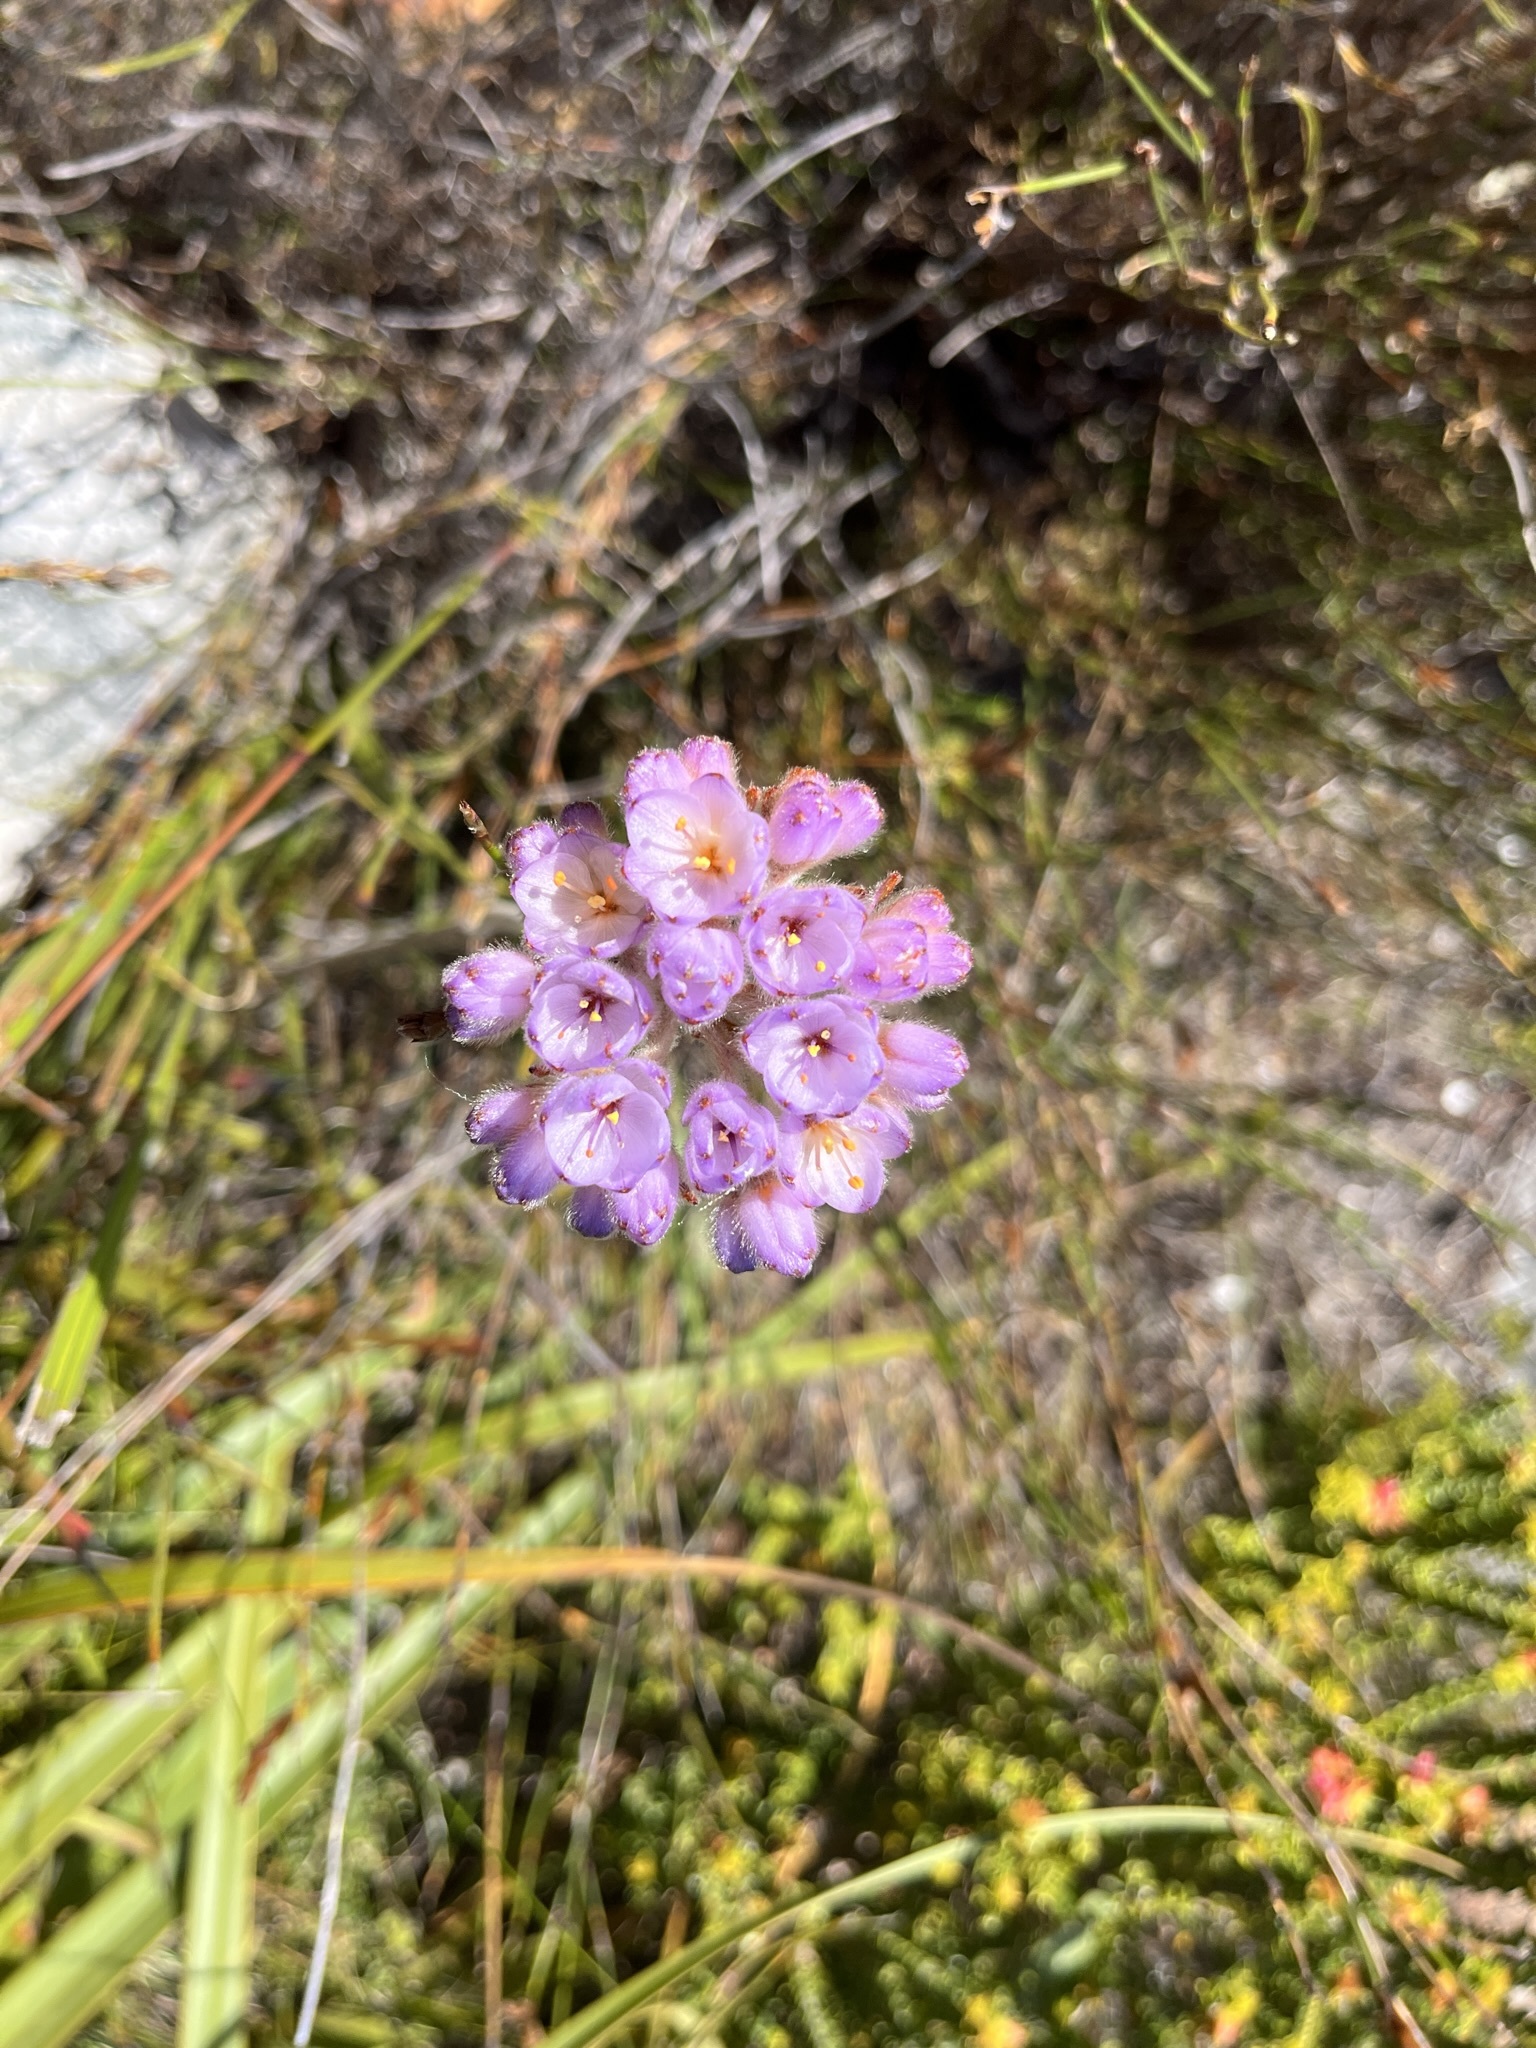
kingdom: Plantae
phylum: Tracheophyta
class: Liliopsida
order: Commelinales
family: Haemodoraceae
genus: Dilatris
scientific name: Dilatris pillansii
